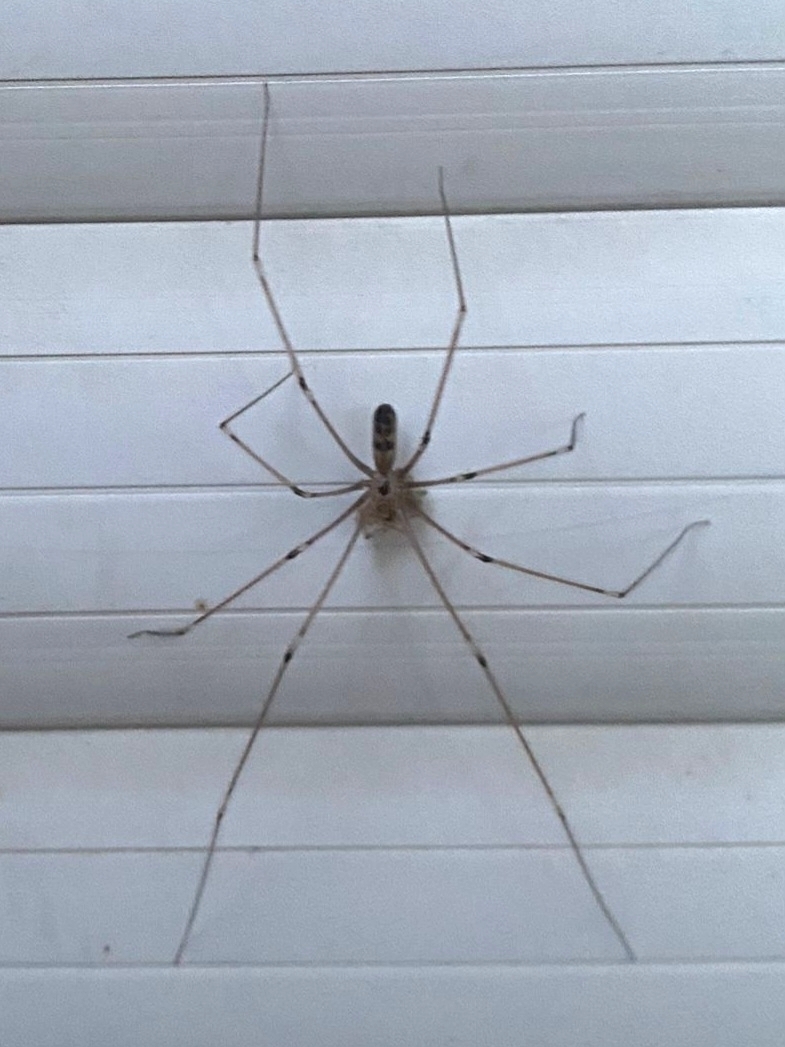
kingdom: Animalia
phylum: Arthropoda
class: Arachnida
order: Araneae
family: Pholcidae
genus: Pholcus
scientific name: Pholcus phalangioides
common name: Longbodied cellar spider
